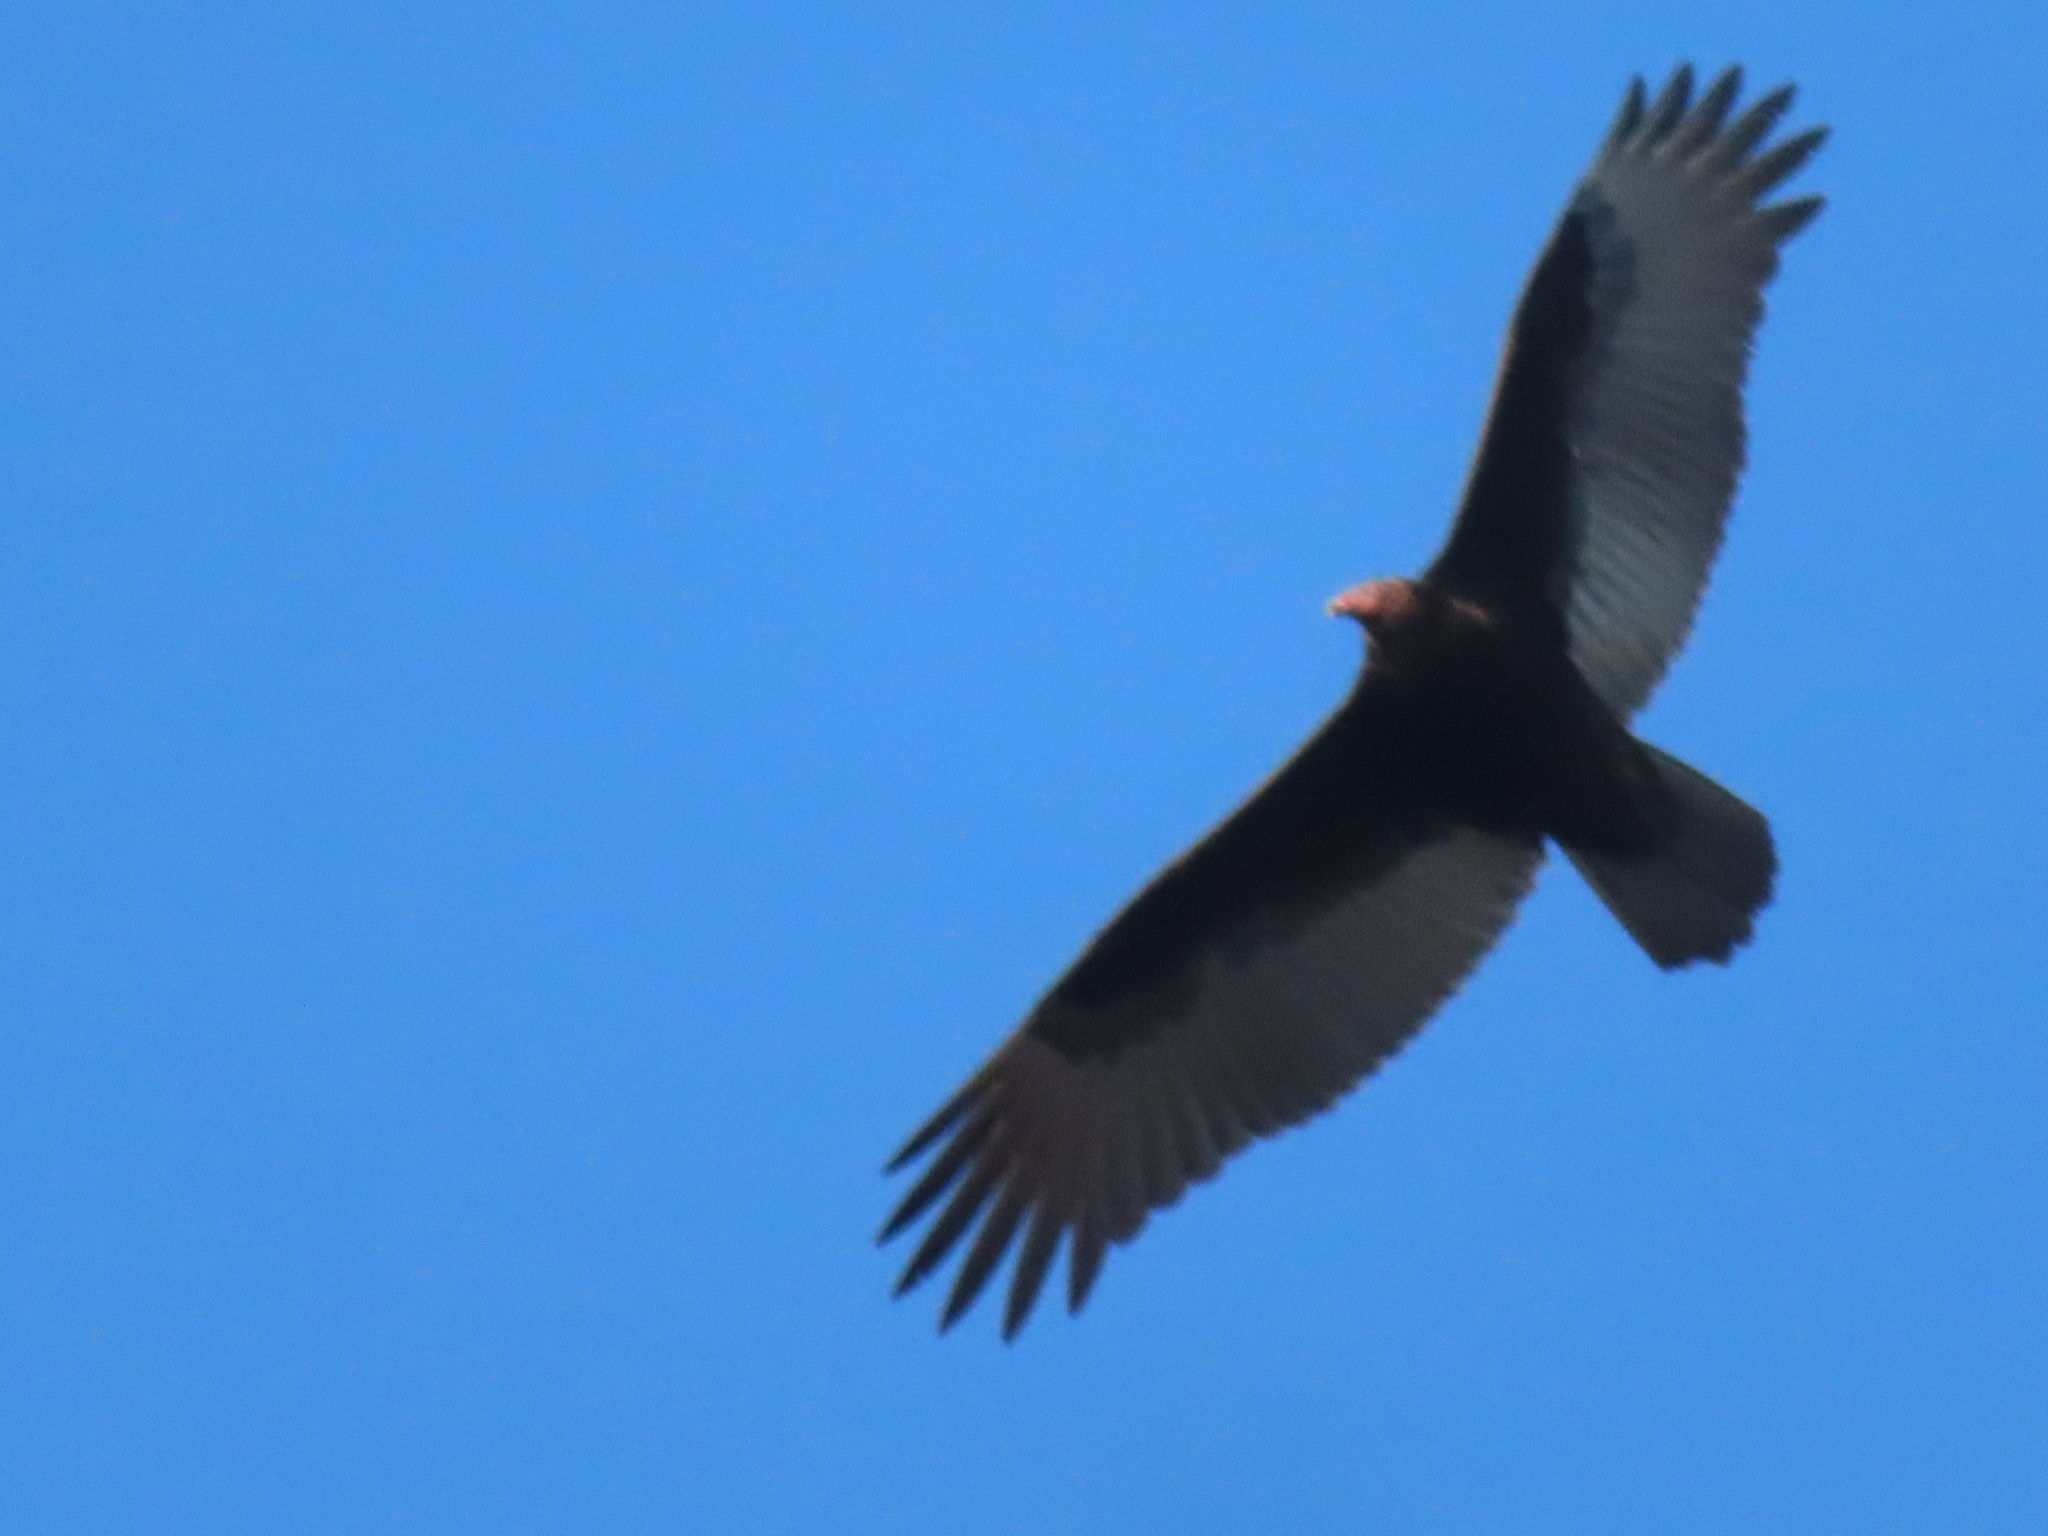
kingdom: Animalia
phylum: Chordata
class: Aves
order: Accipitriformes
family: Cathartidae
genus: Cathartes
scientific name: Cathartes aura
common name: Turkey vulture
